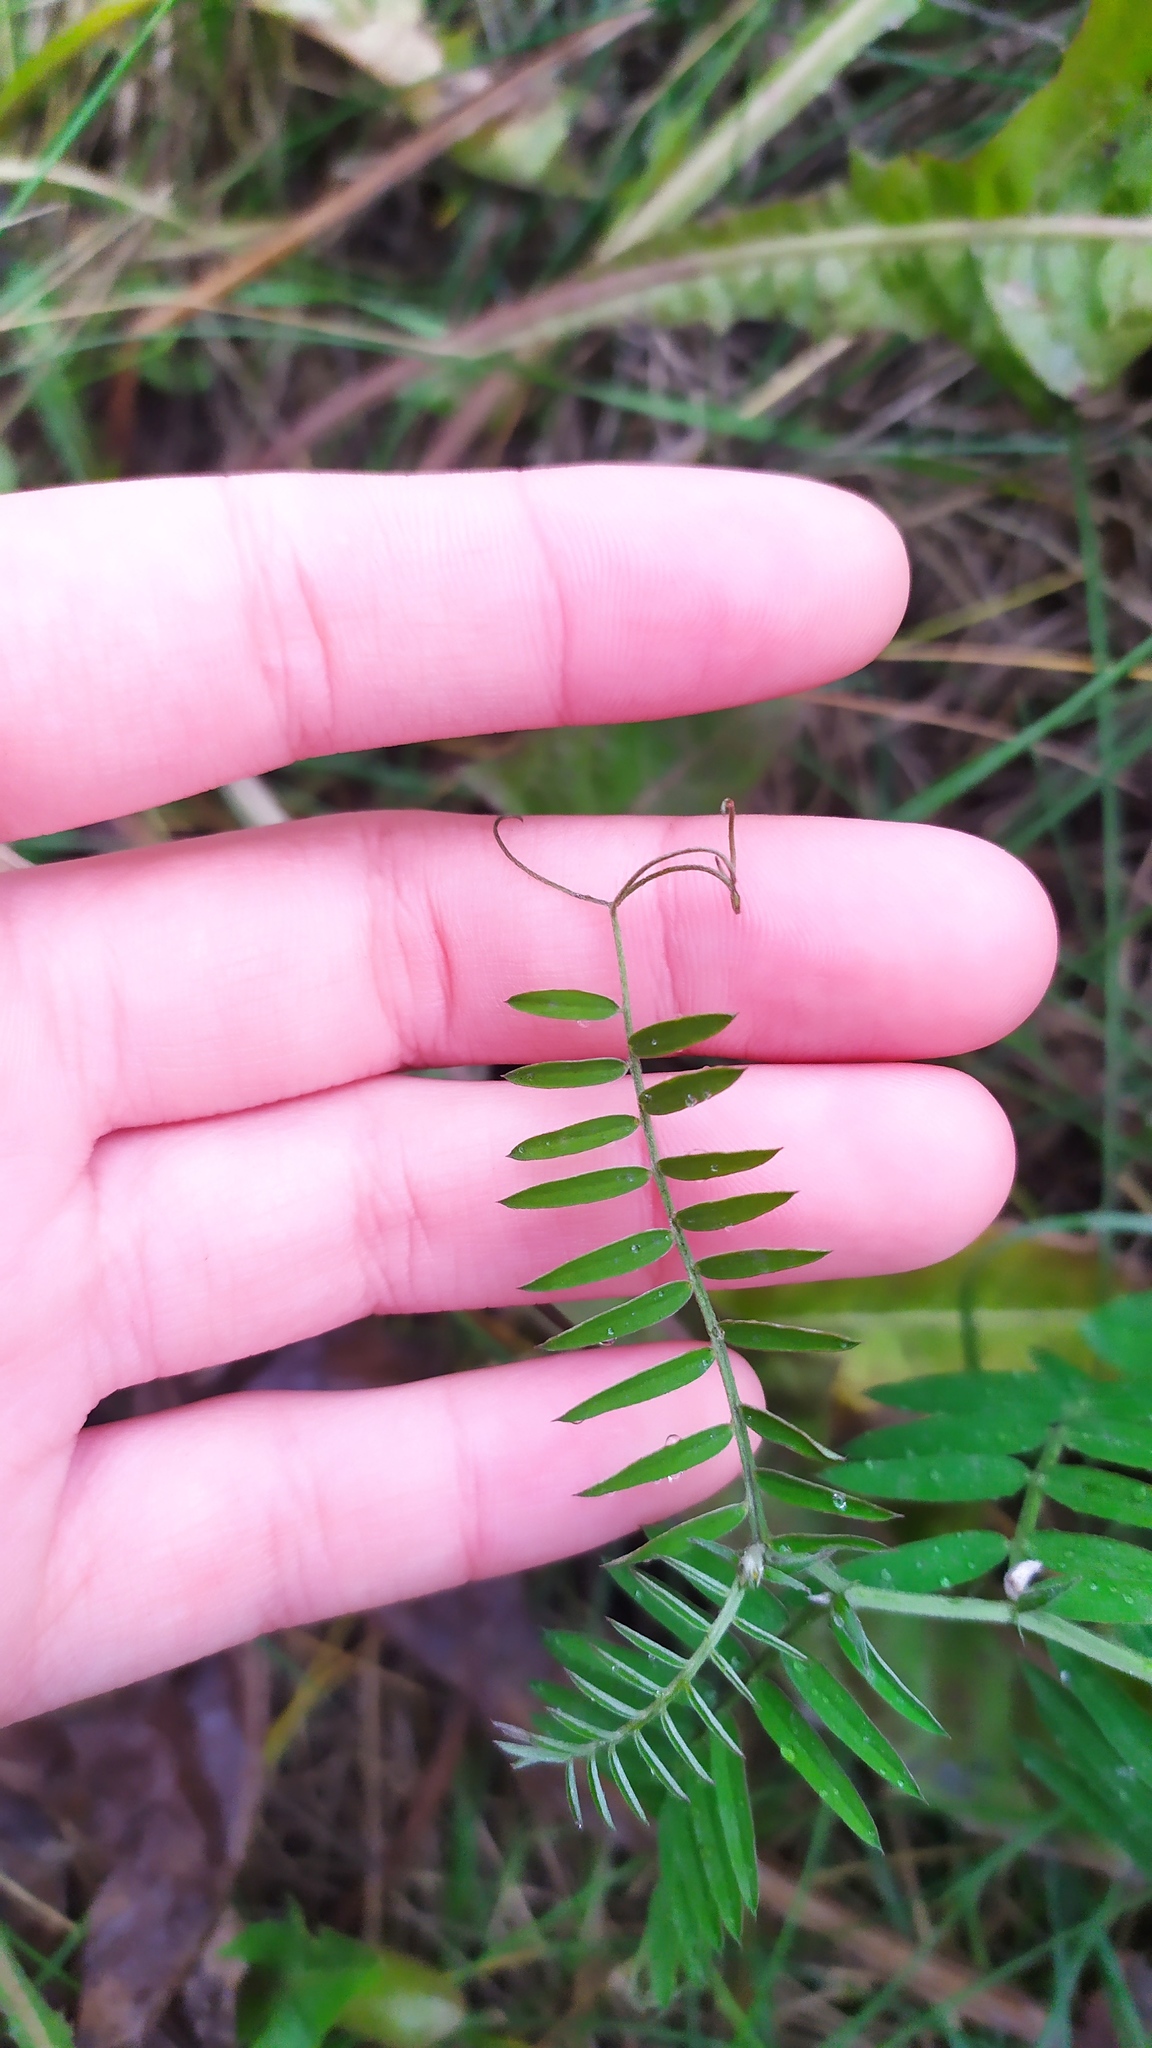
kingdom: Plantae
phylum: Tracheophyta
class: Magnoliopsida
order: Fabales
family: Fabaceae
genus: Vicia
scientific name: Vicia cracca
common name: Bird vetch
